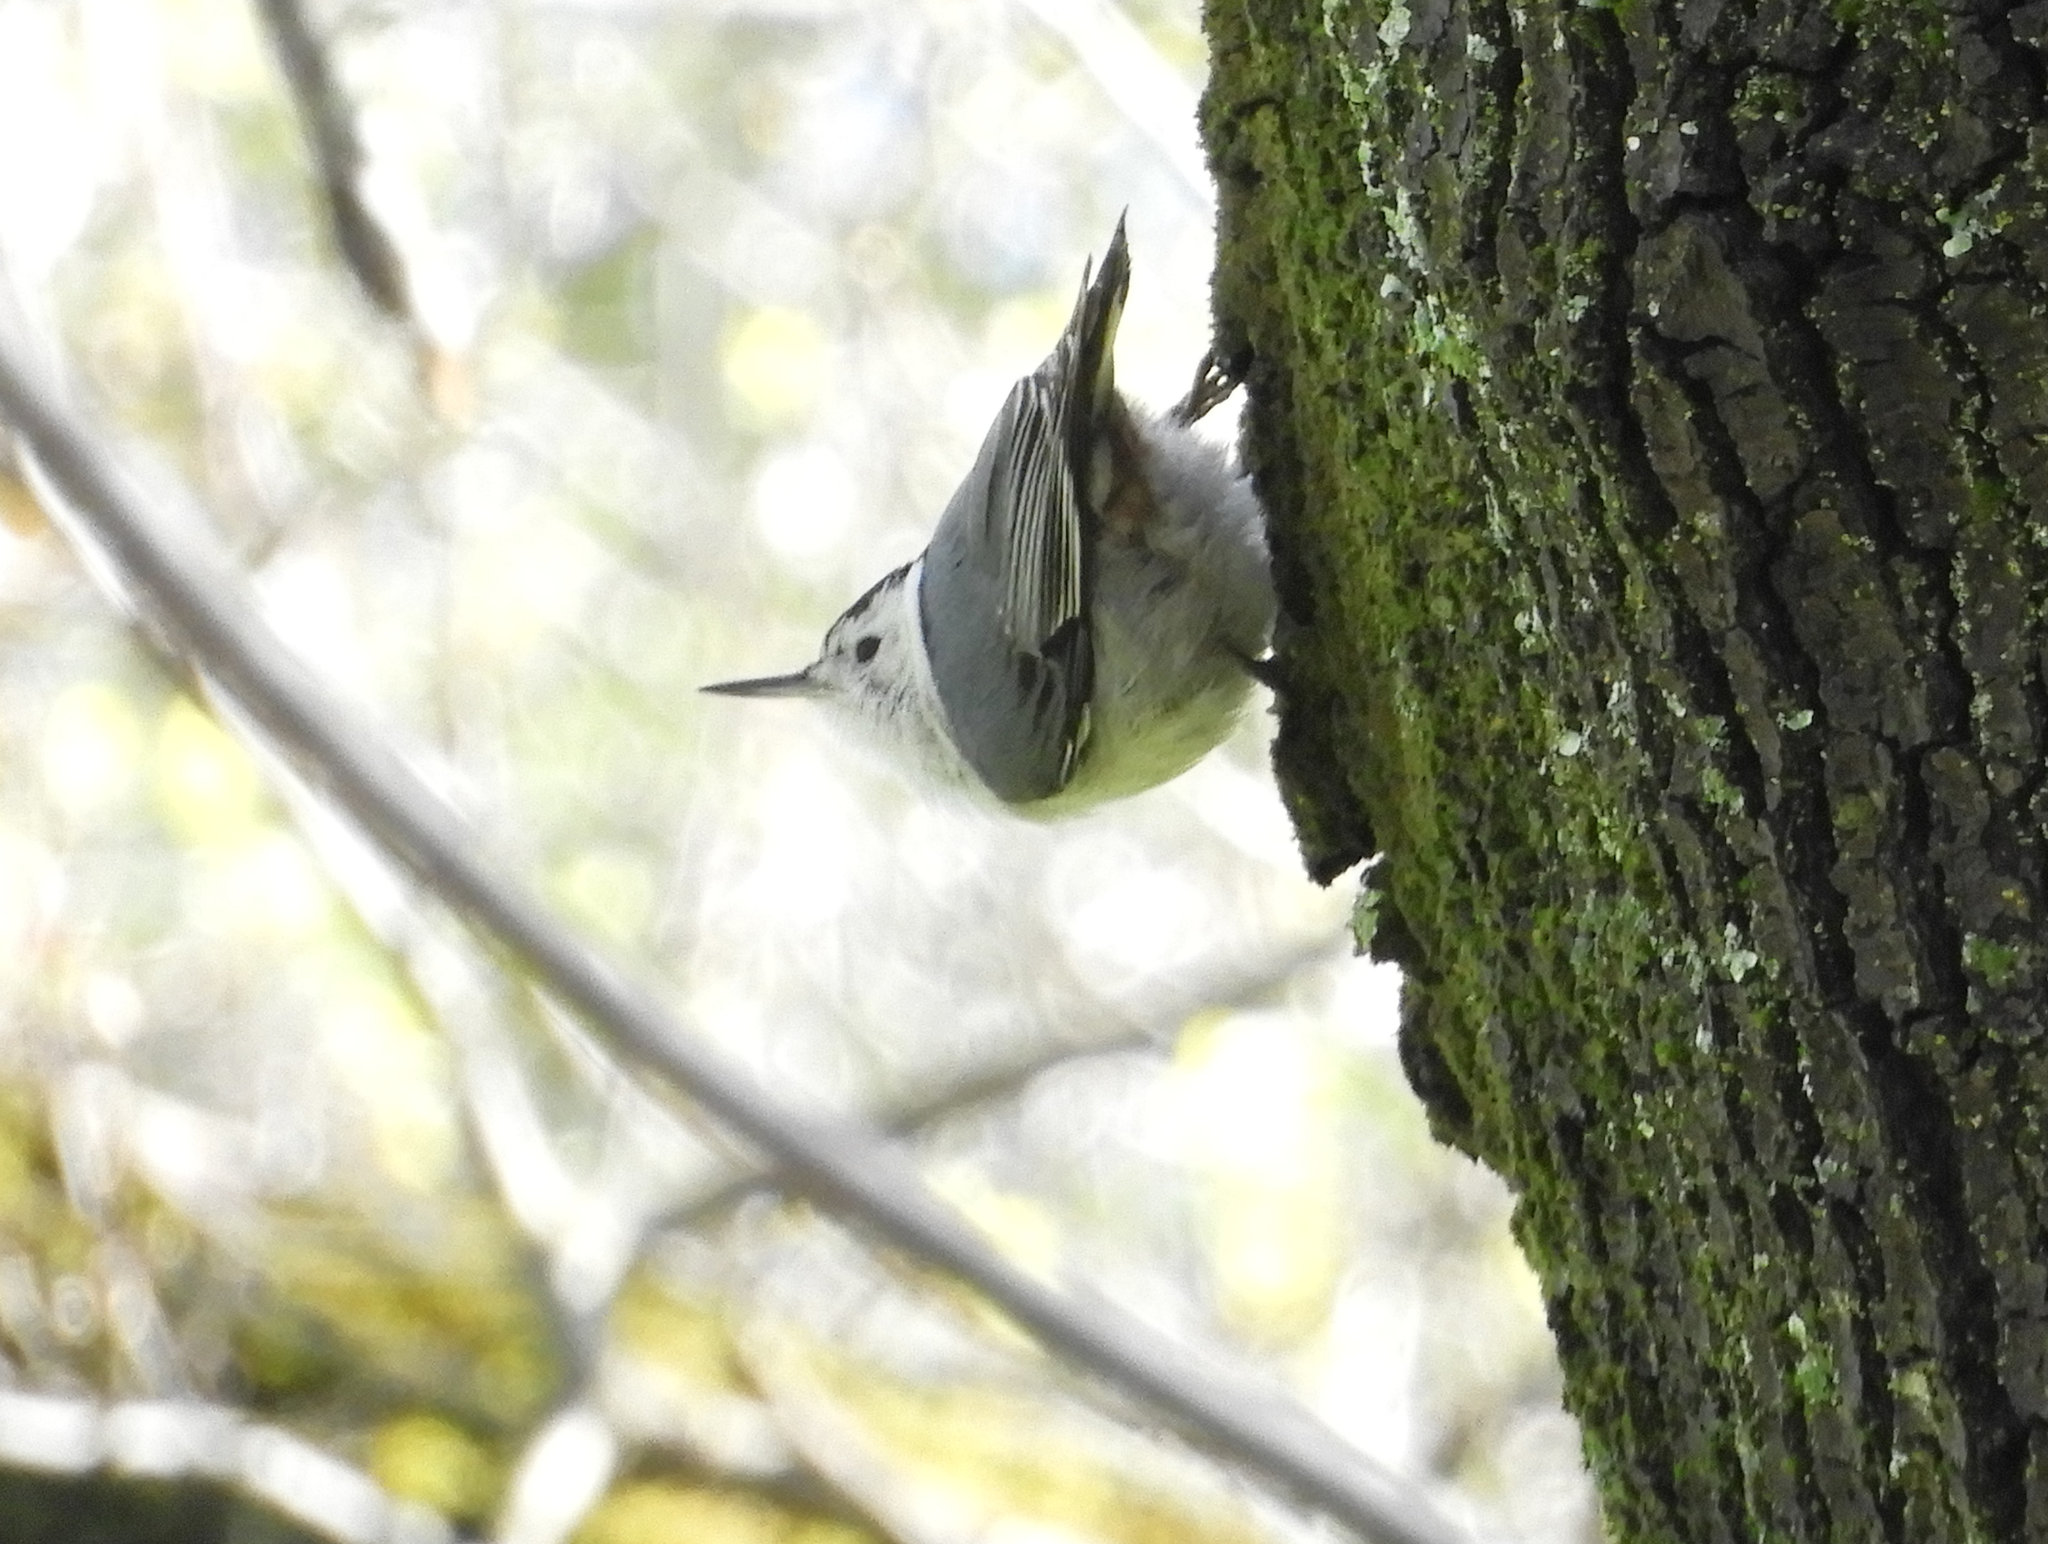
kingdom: Animalia
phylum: Chordata
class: Aves
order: Passeriformes
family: Sittidae
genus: Sitta
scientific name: Sitta carolinensis
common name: White-breasted nuthatch
